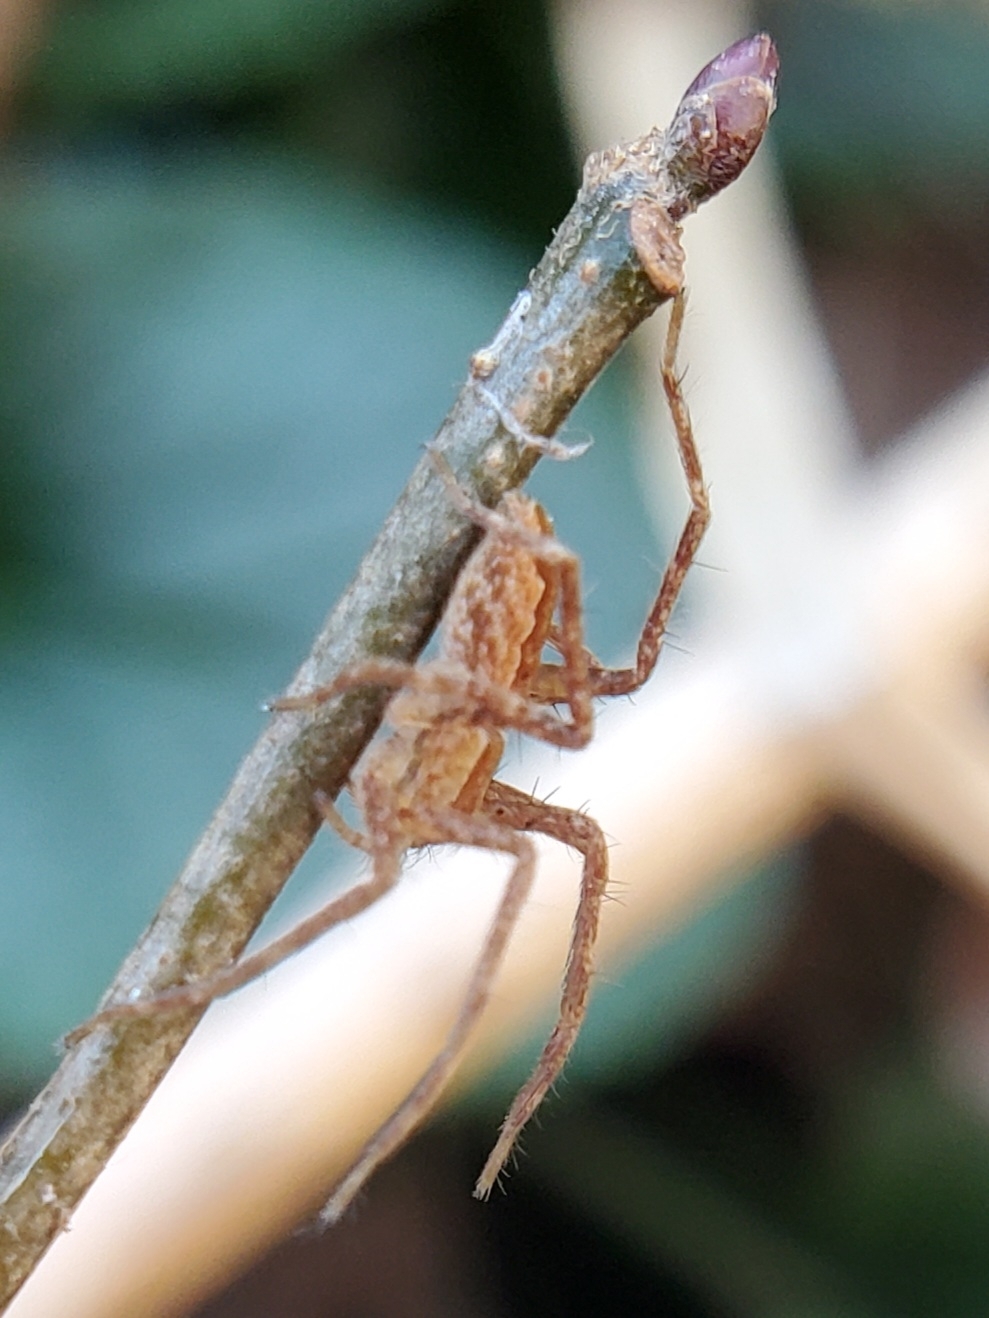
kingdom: Animalia
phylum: Arthropoda
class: Arachnida
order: Araneae
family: Pisauridae
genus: Pisaurina
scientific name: Pisaurina mira
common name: American nursery web spider
